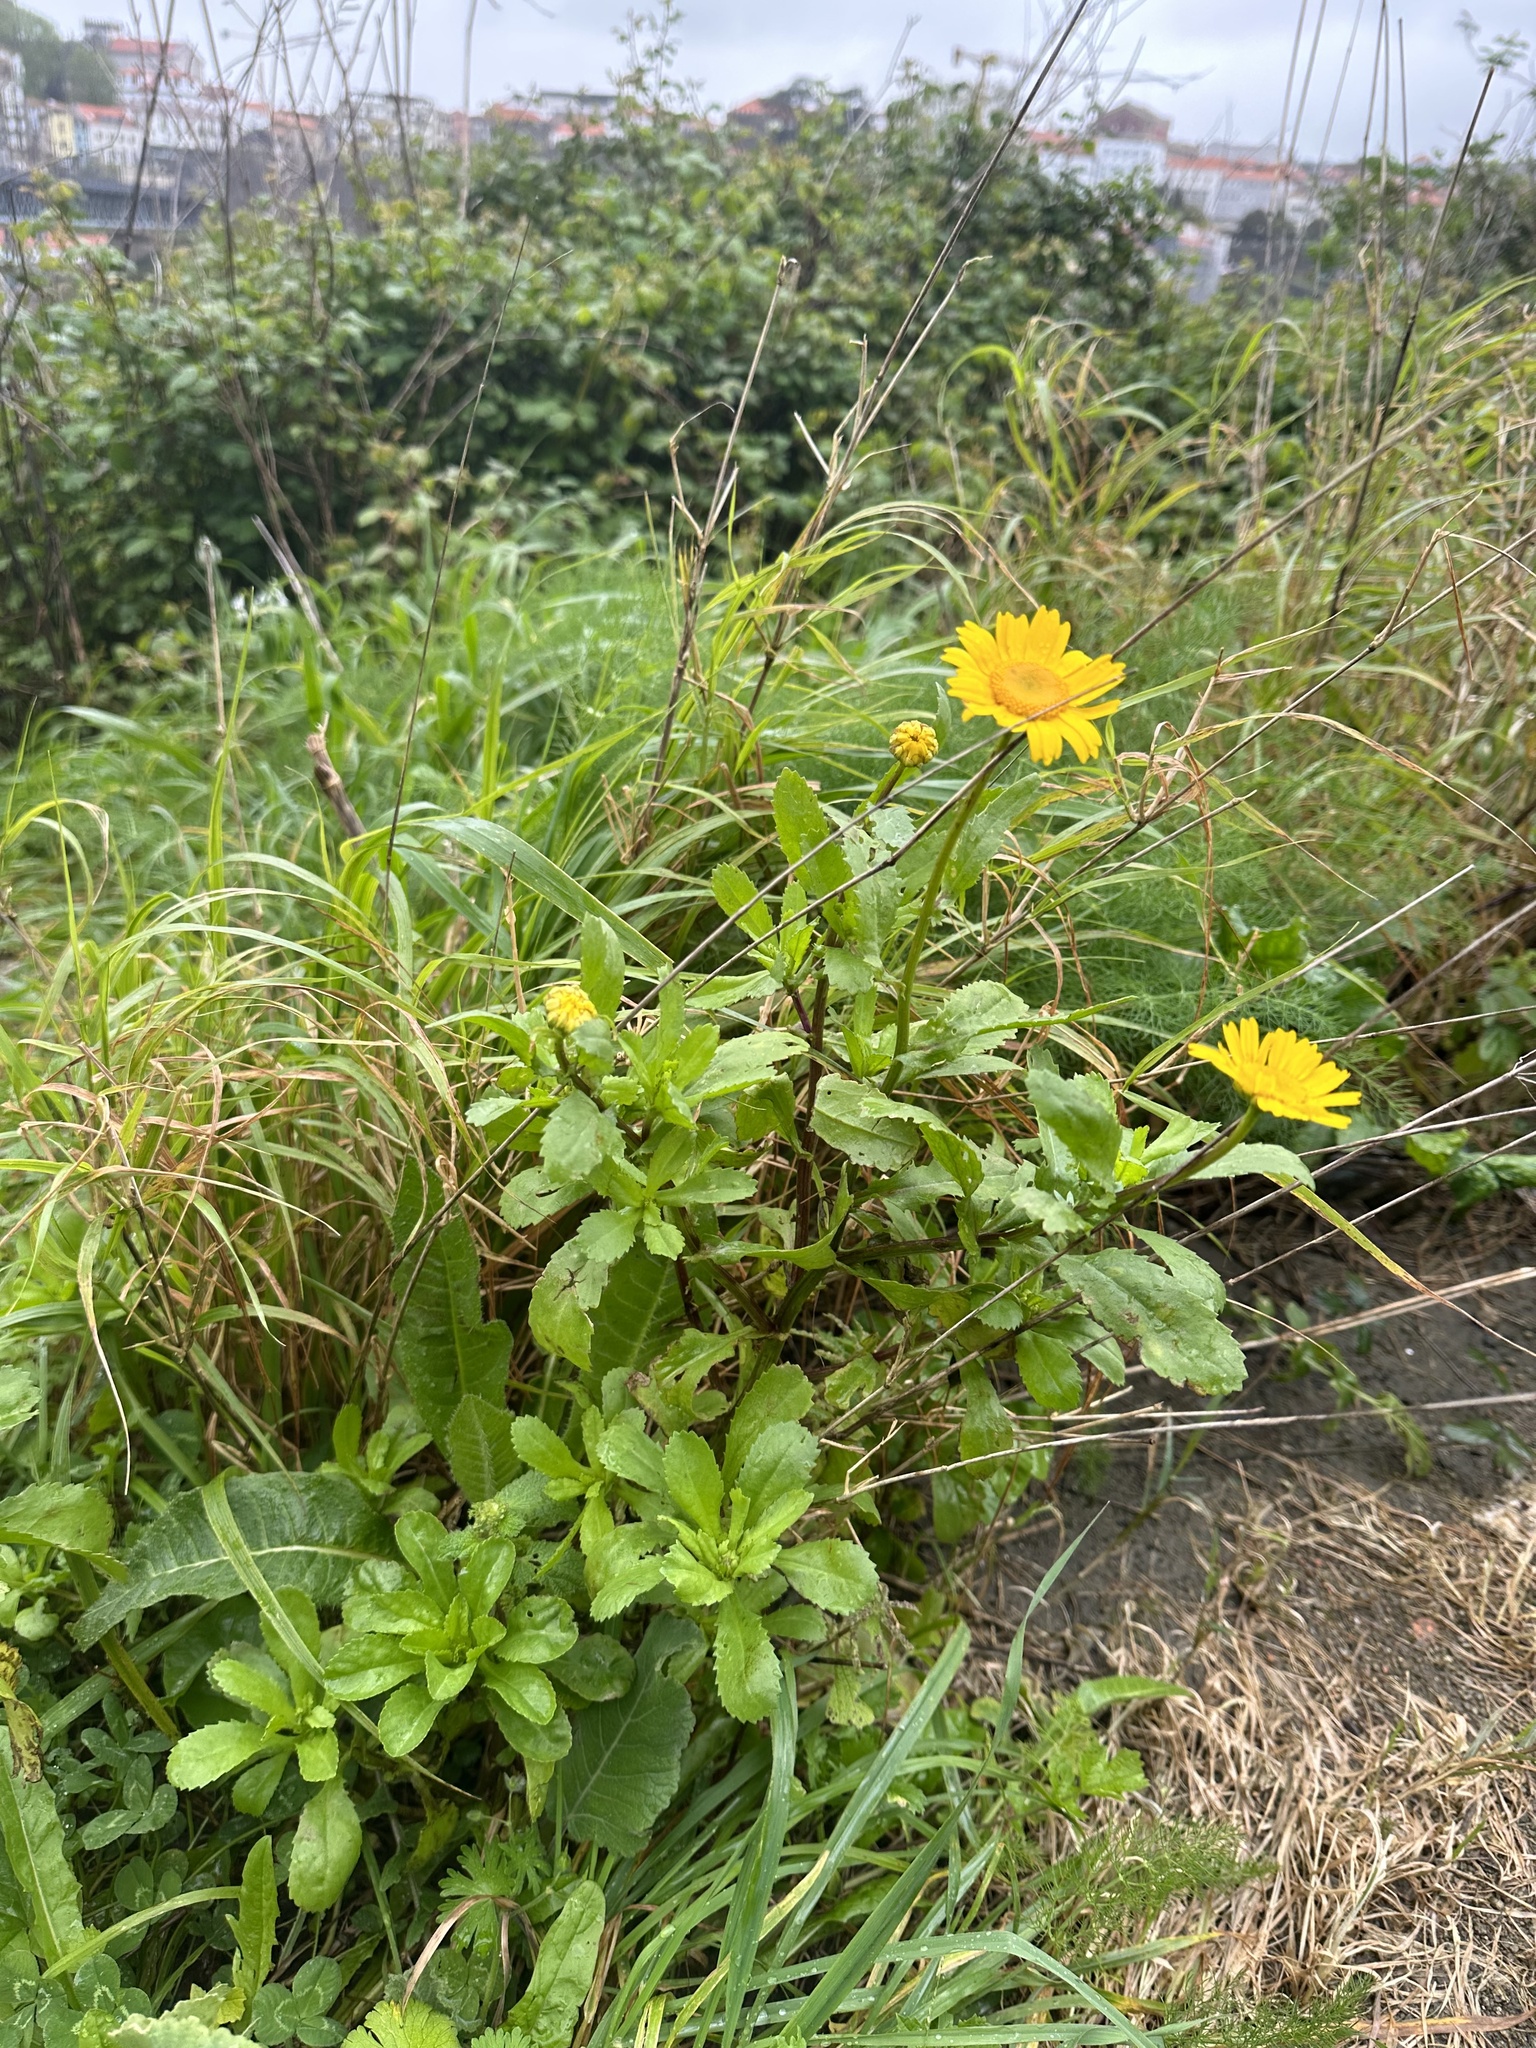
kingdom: Plantae
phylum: Tracheophyta
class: Magnoliopsida
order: Asterales
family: Asteraceae
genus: Coleostephus
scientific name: Coleostephus myconis
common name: Mediterranean marigold
